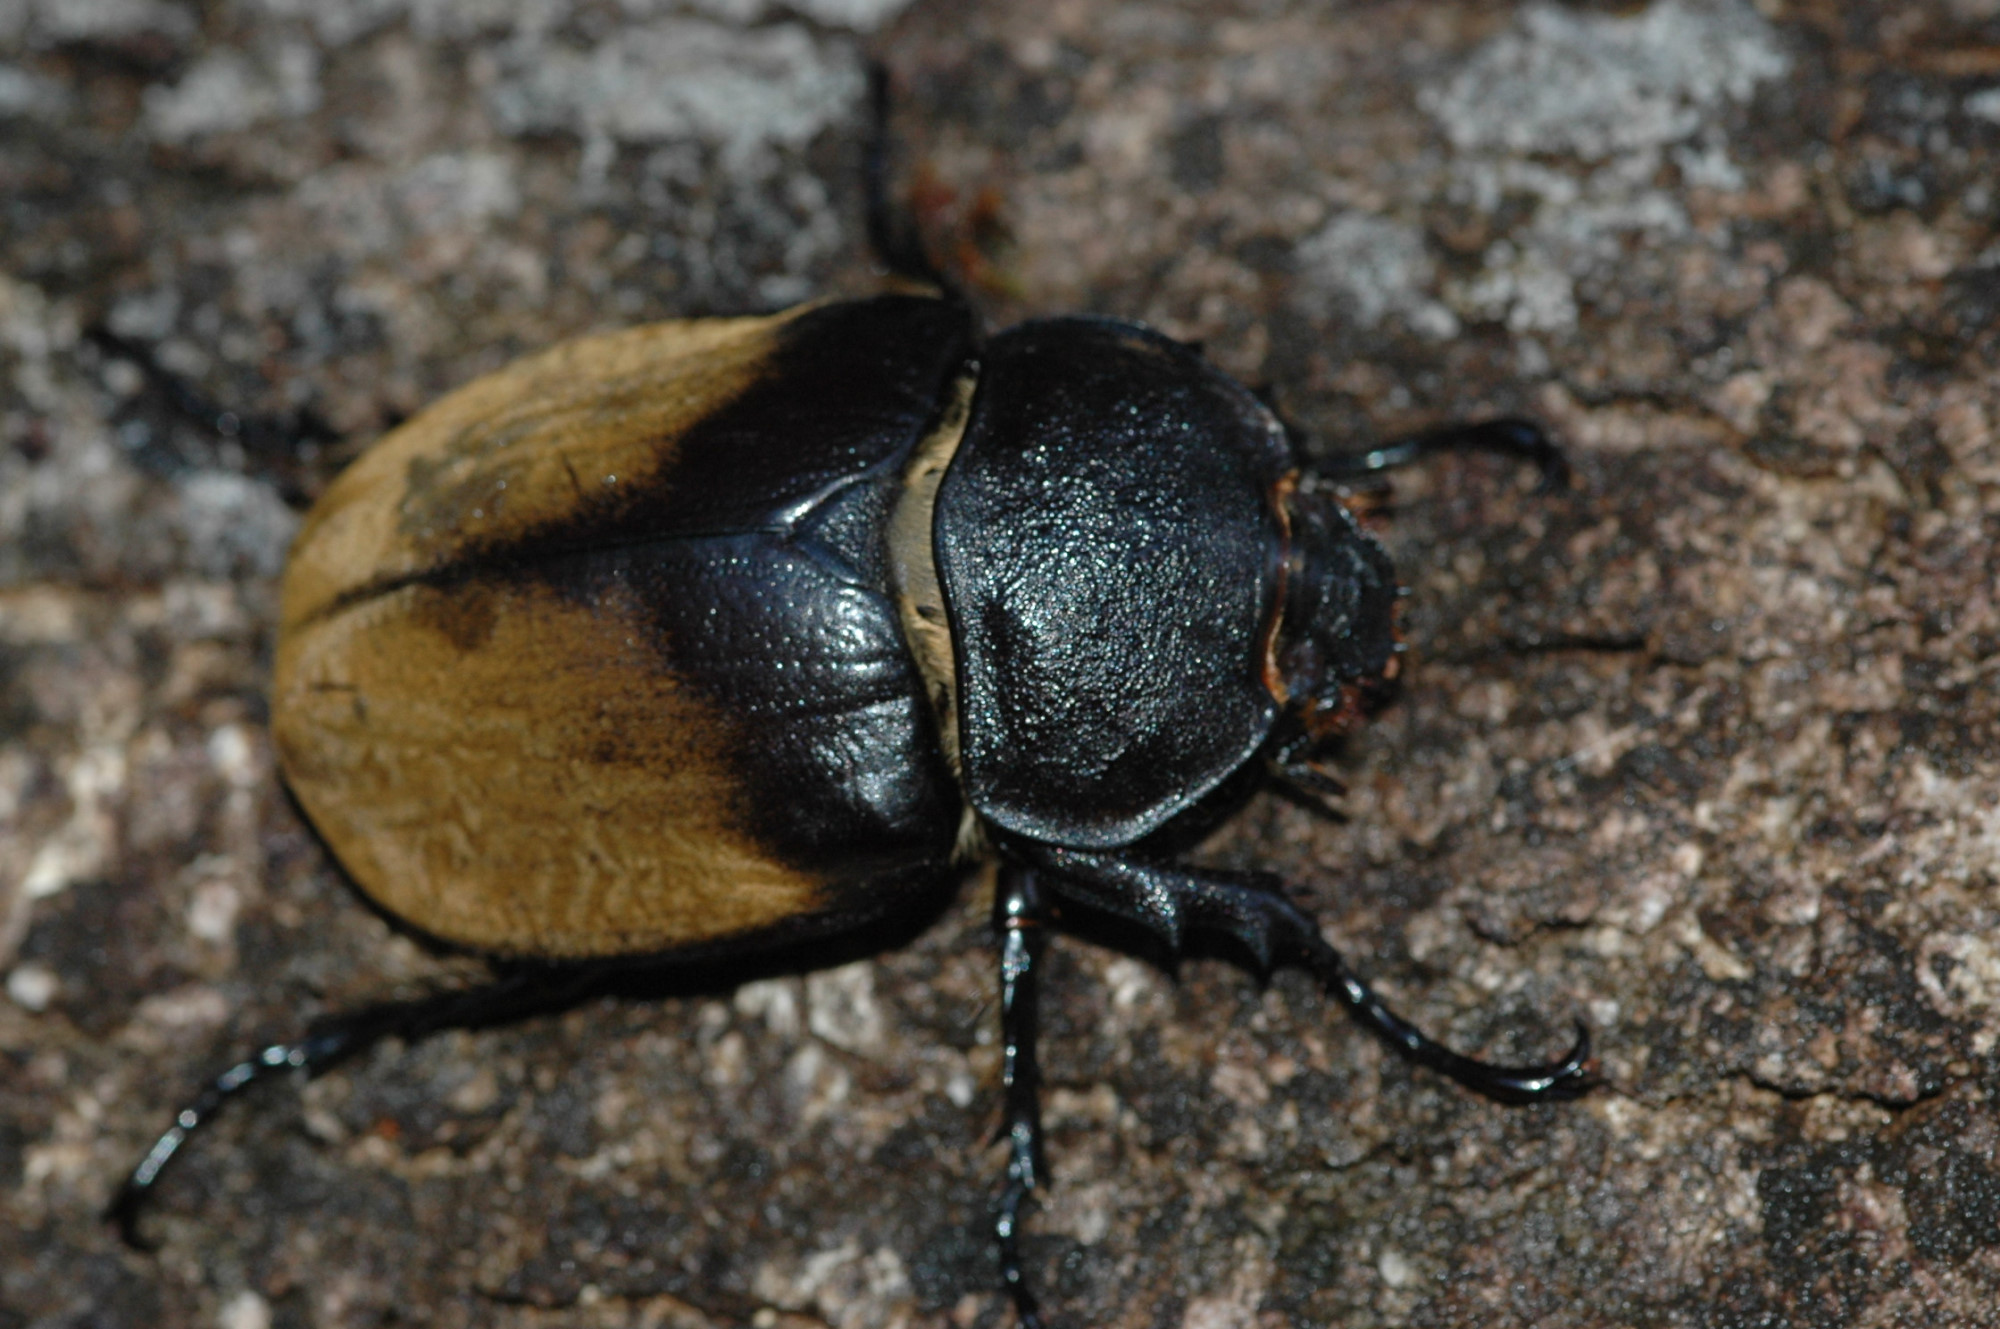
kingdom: Animalia
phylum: Arthropoda
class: Insecta
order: Coleoptera
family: Scarabaeidae
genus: Megasoma
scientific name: Megasoma elephas
